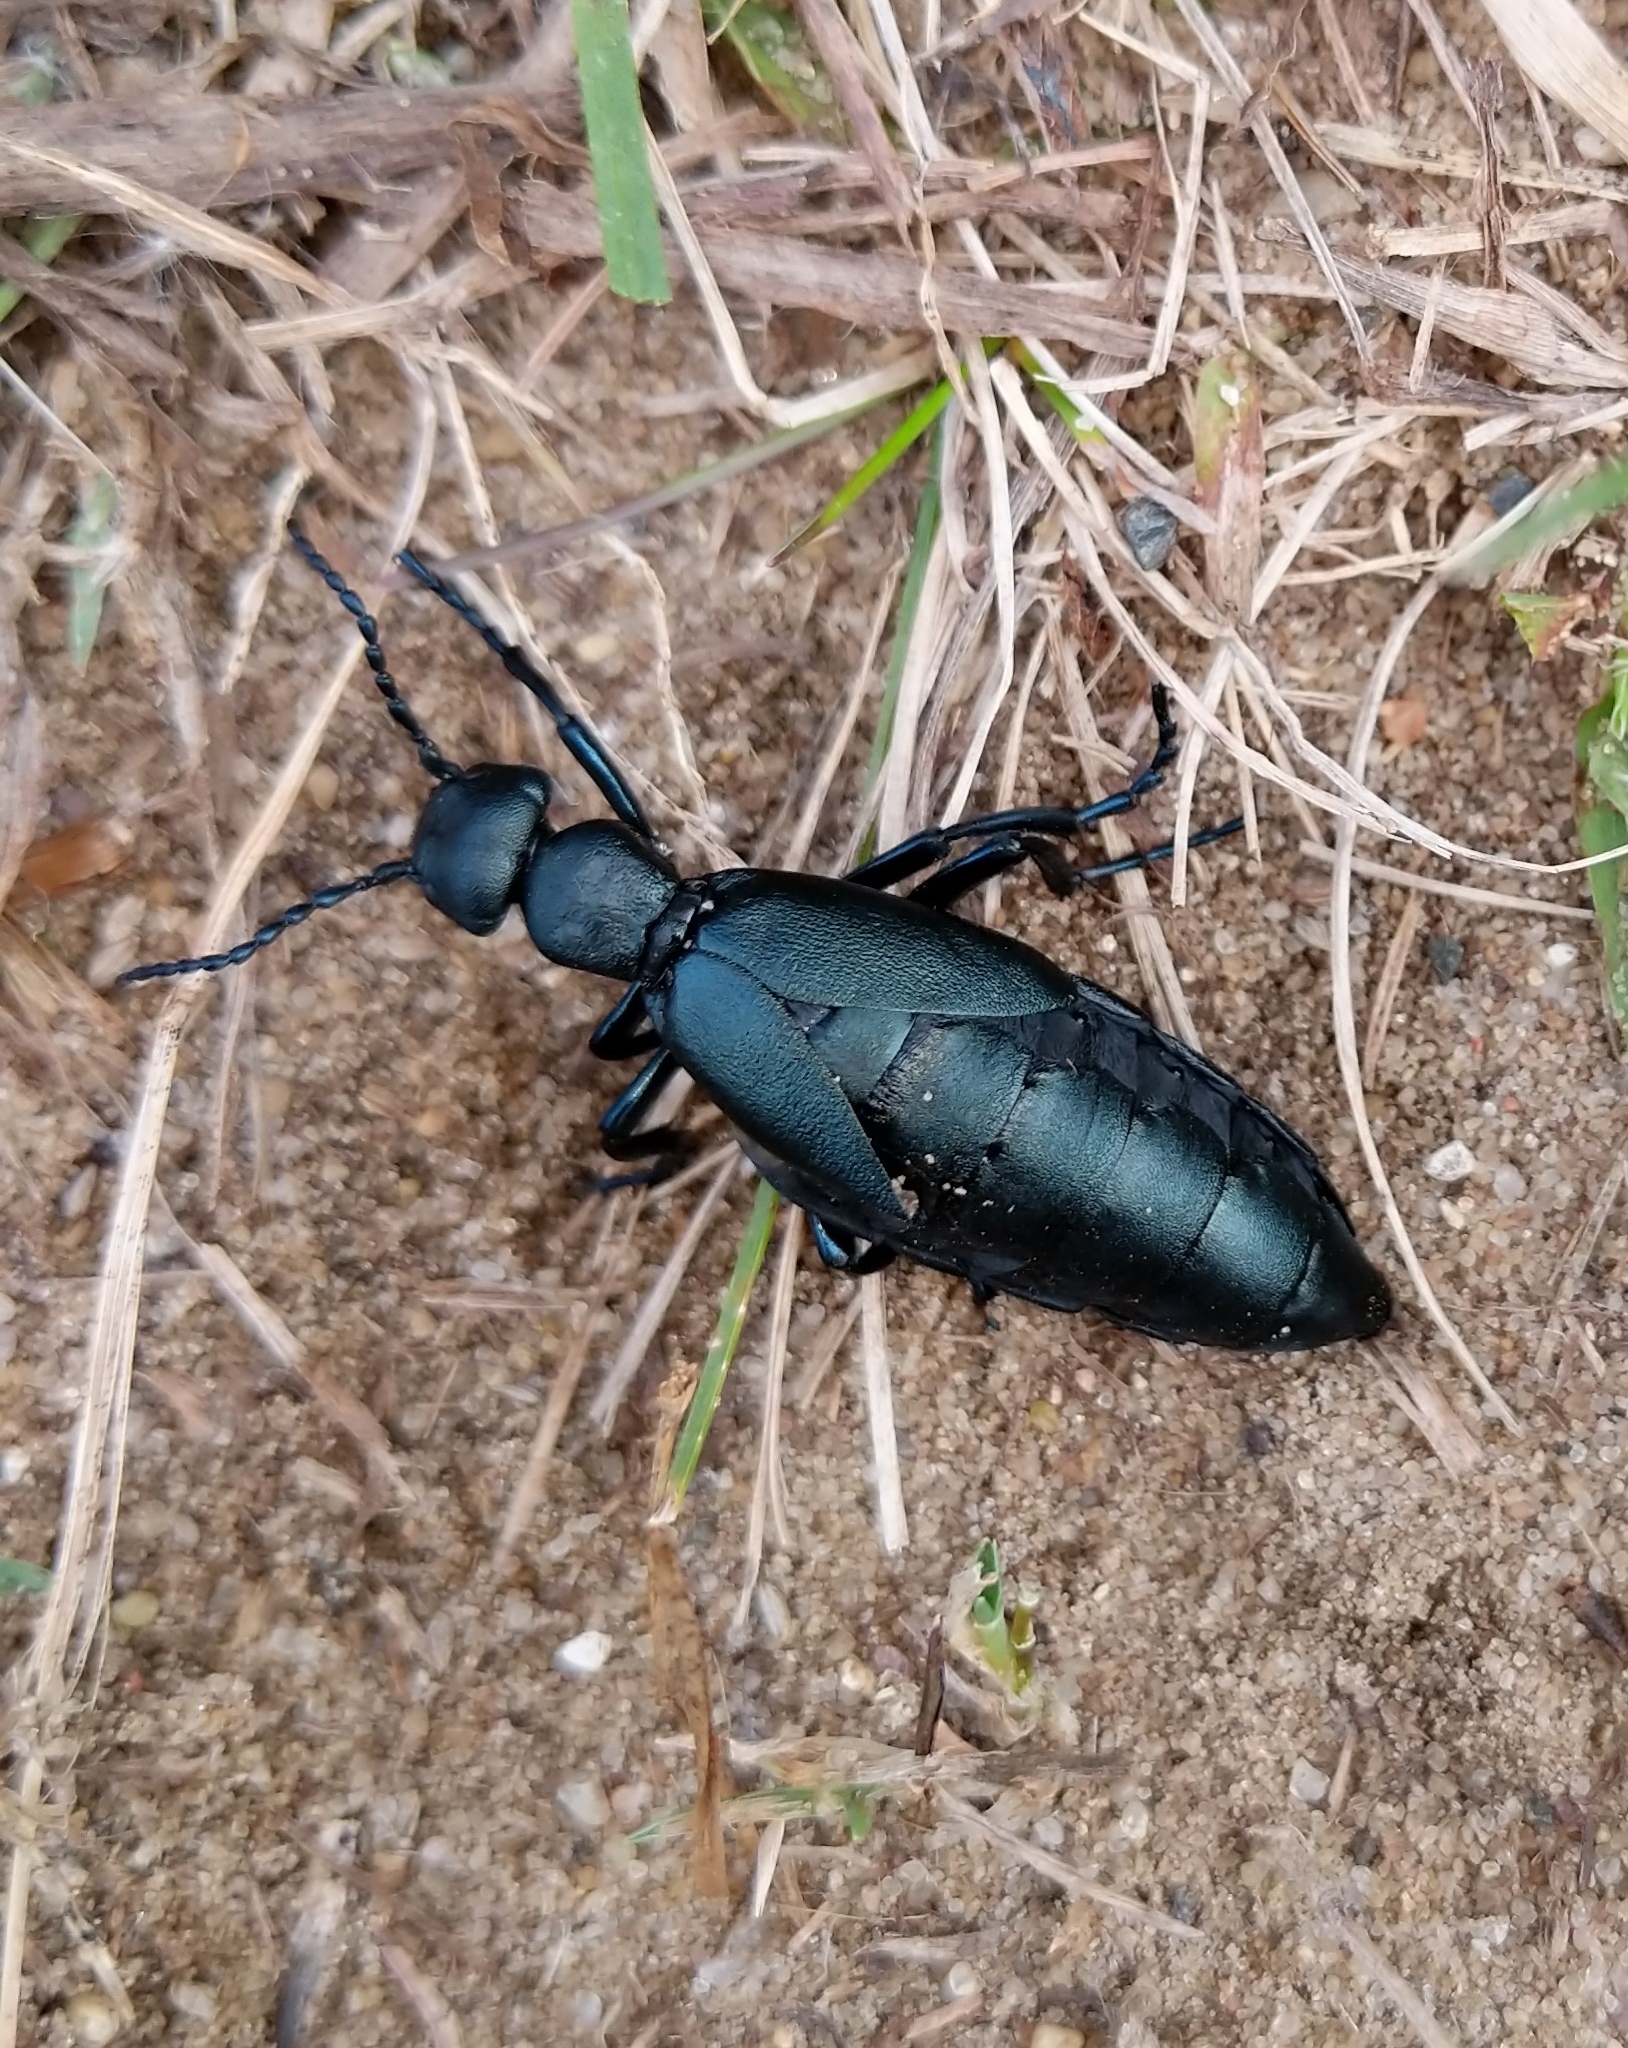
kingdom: Animalia
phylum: Arthropoda
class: Insecta
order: Coleoptera
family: Meloidae
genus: Meloe
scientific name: Meloe campanicollis
